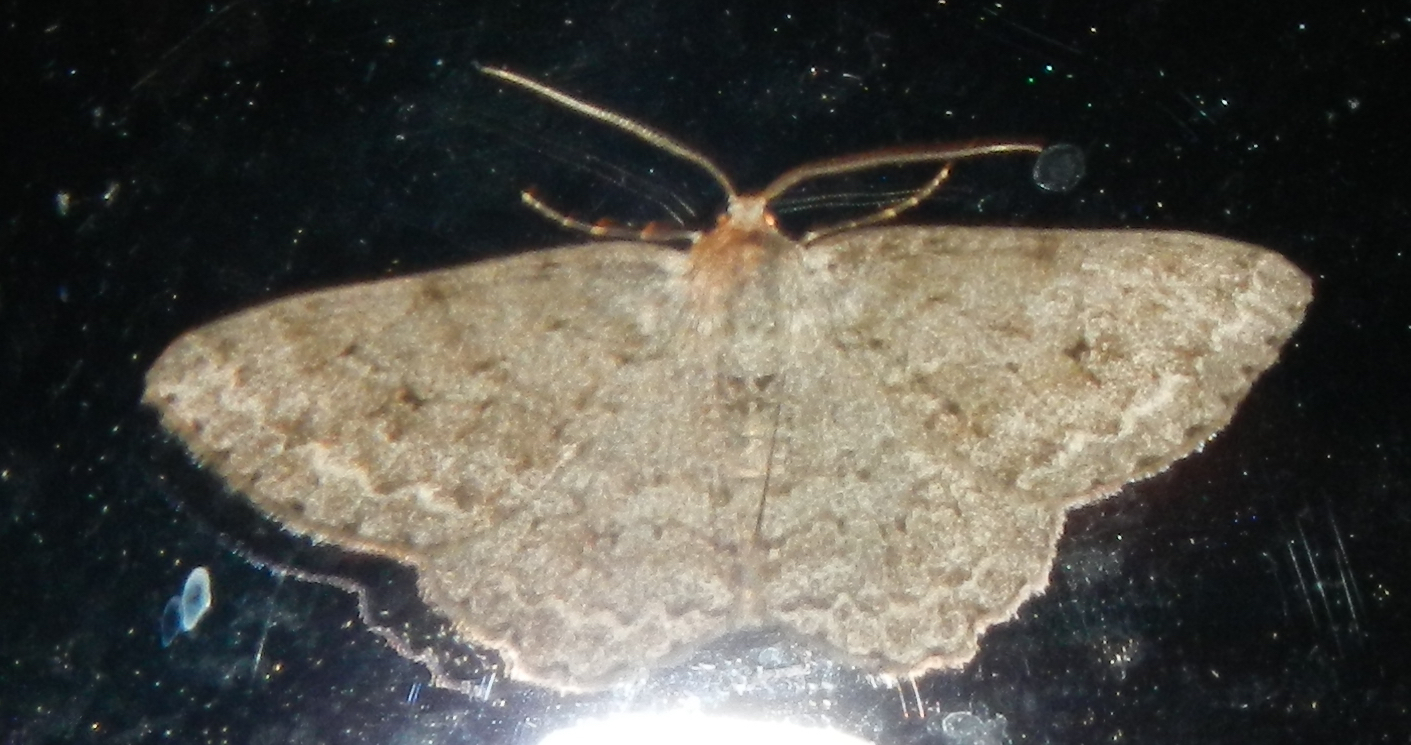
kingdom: Animalia
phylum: Arthropoda
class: Insecta
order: Lepidoptera
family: Geometridae
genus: Ectropis
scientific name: Ectropis crepuscularia
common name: Engrailed
